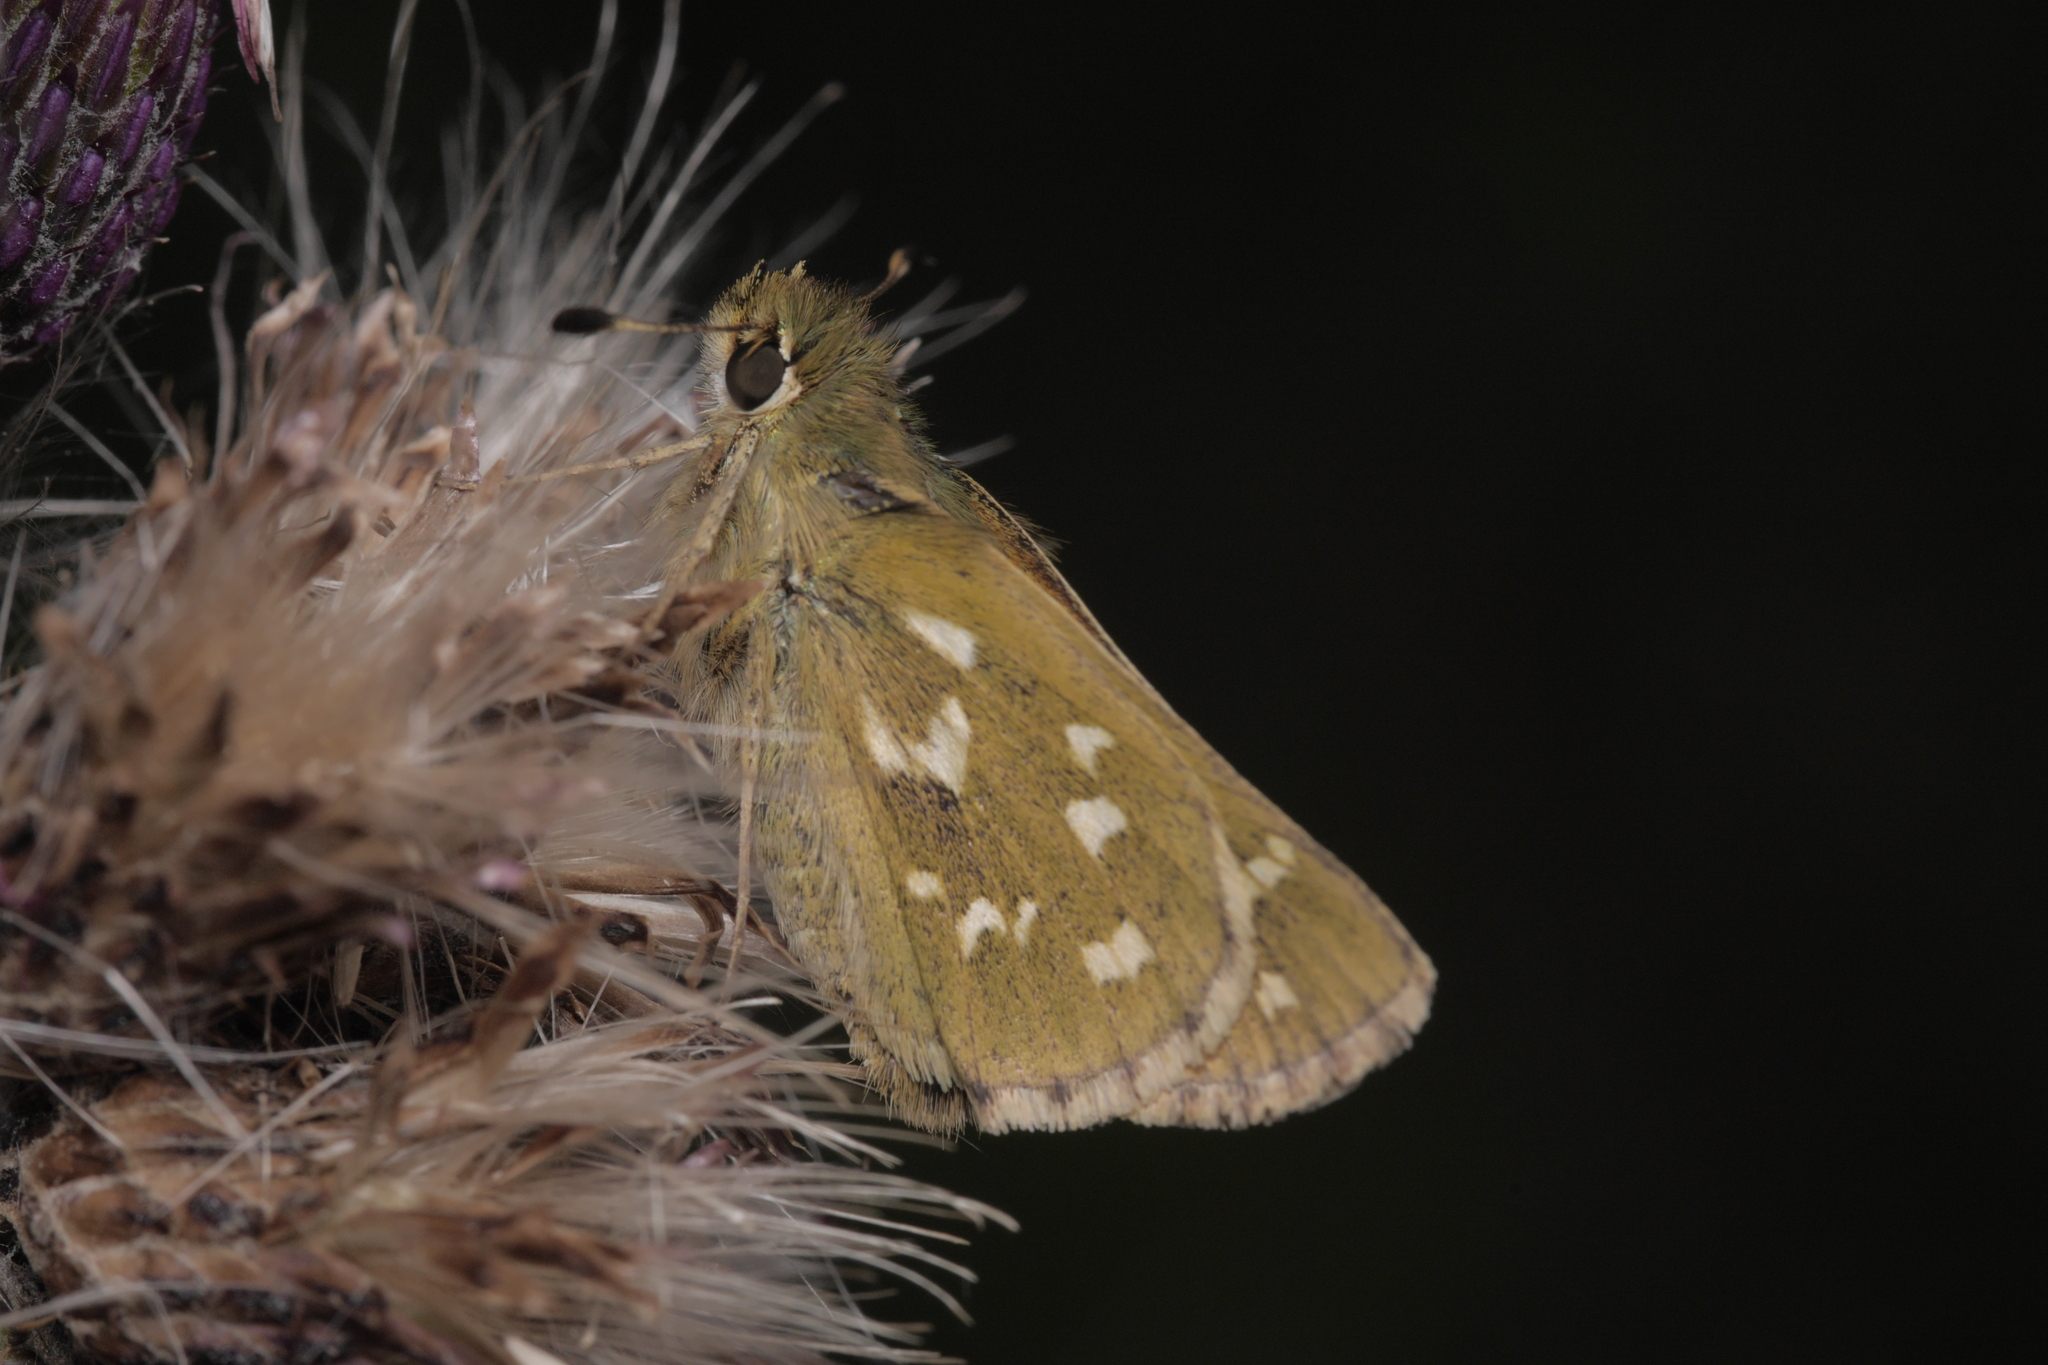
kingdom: Animalia
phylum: Arthropoda
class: Insecta
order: Lepidoptera
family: Hesperiidae
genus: Hesperia
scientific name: Hesperia comma
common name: Common branded skipper
